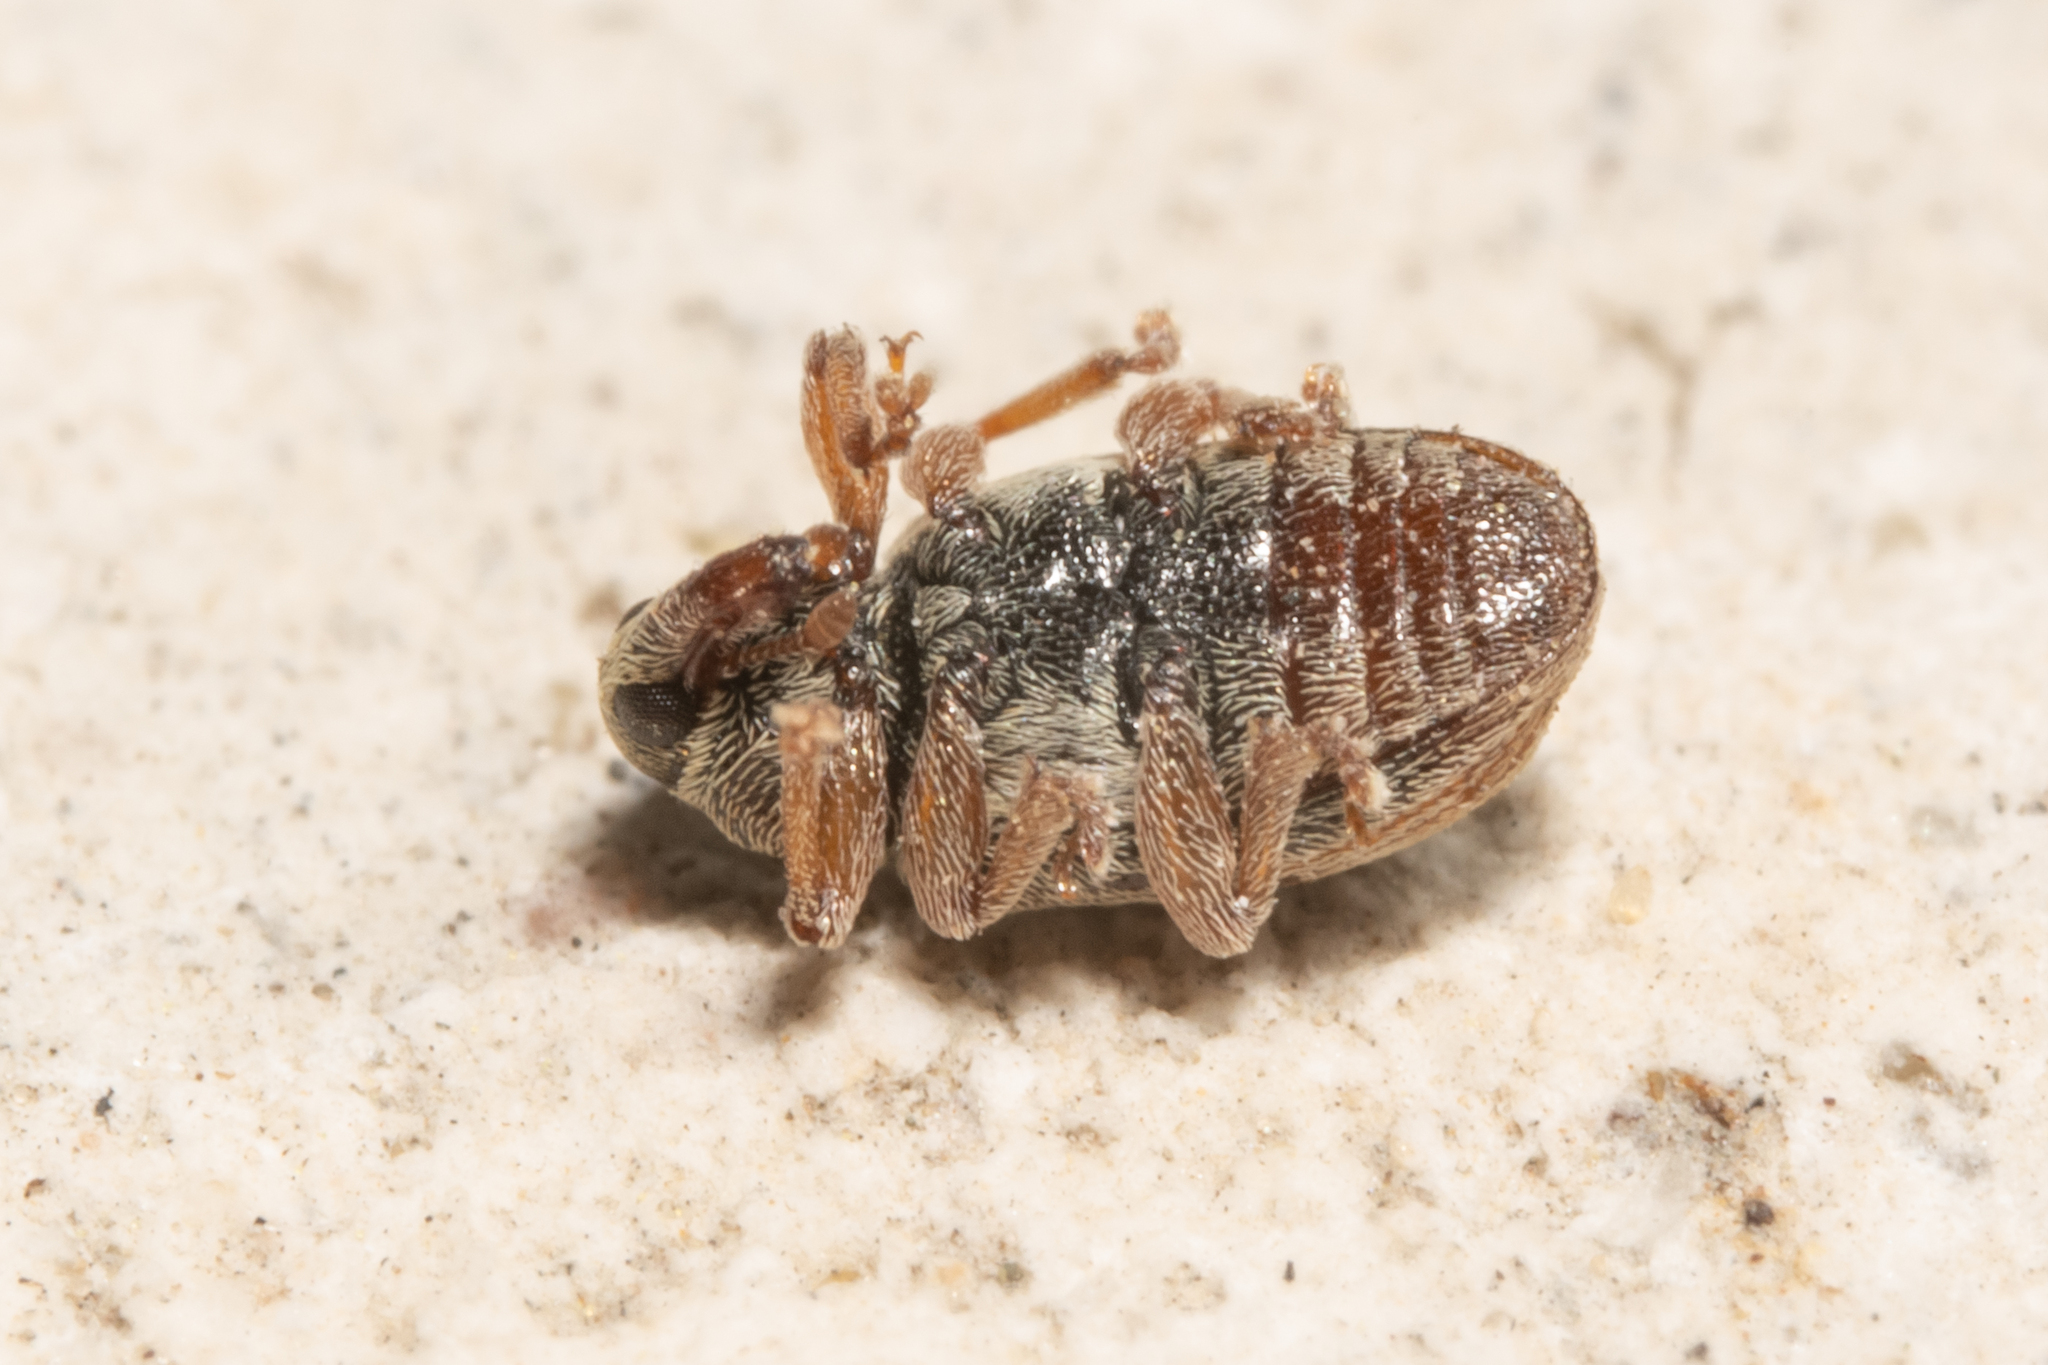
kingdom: Animalia
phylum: Arthropoda
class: Insecta
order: Coleoptera
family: Curculionidae
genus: Ellescus
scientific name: Ellescus scanicus
